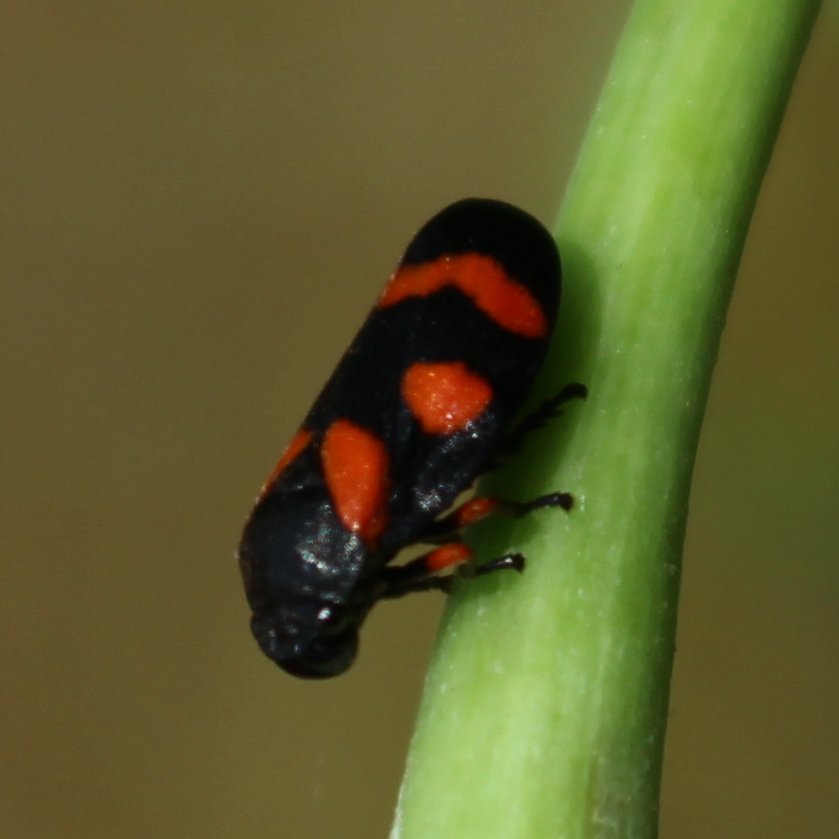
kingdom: Animalia
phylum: Arthropoda
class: Insecta
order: Hemiptera
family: Cercopidae
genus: Cercopis
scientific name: Cercopis intermedia
